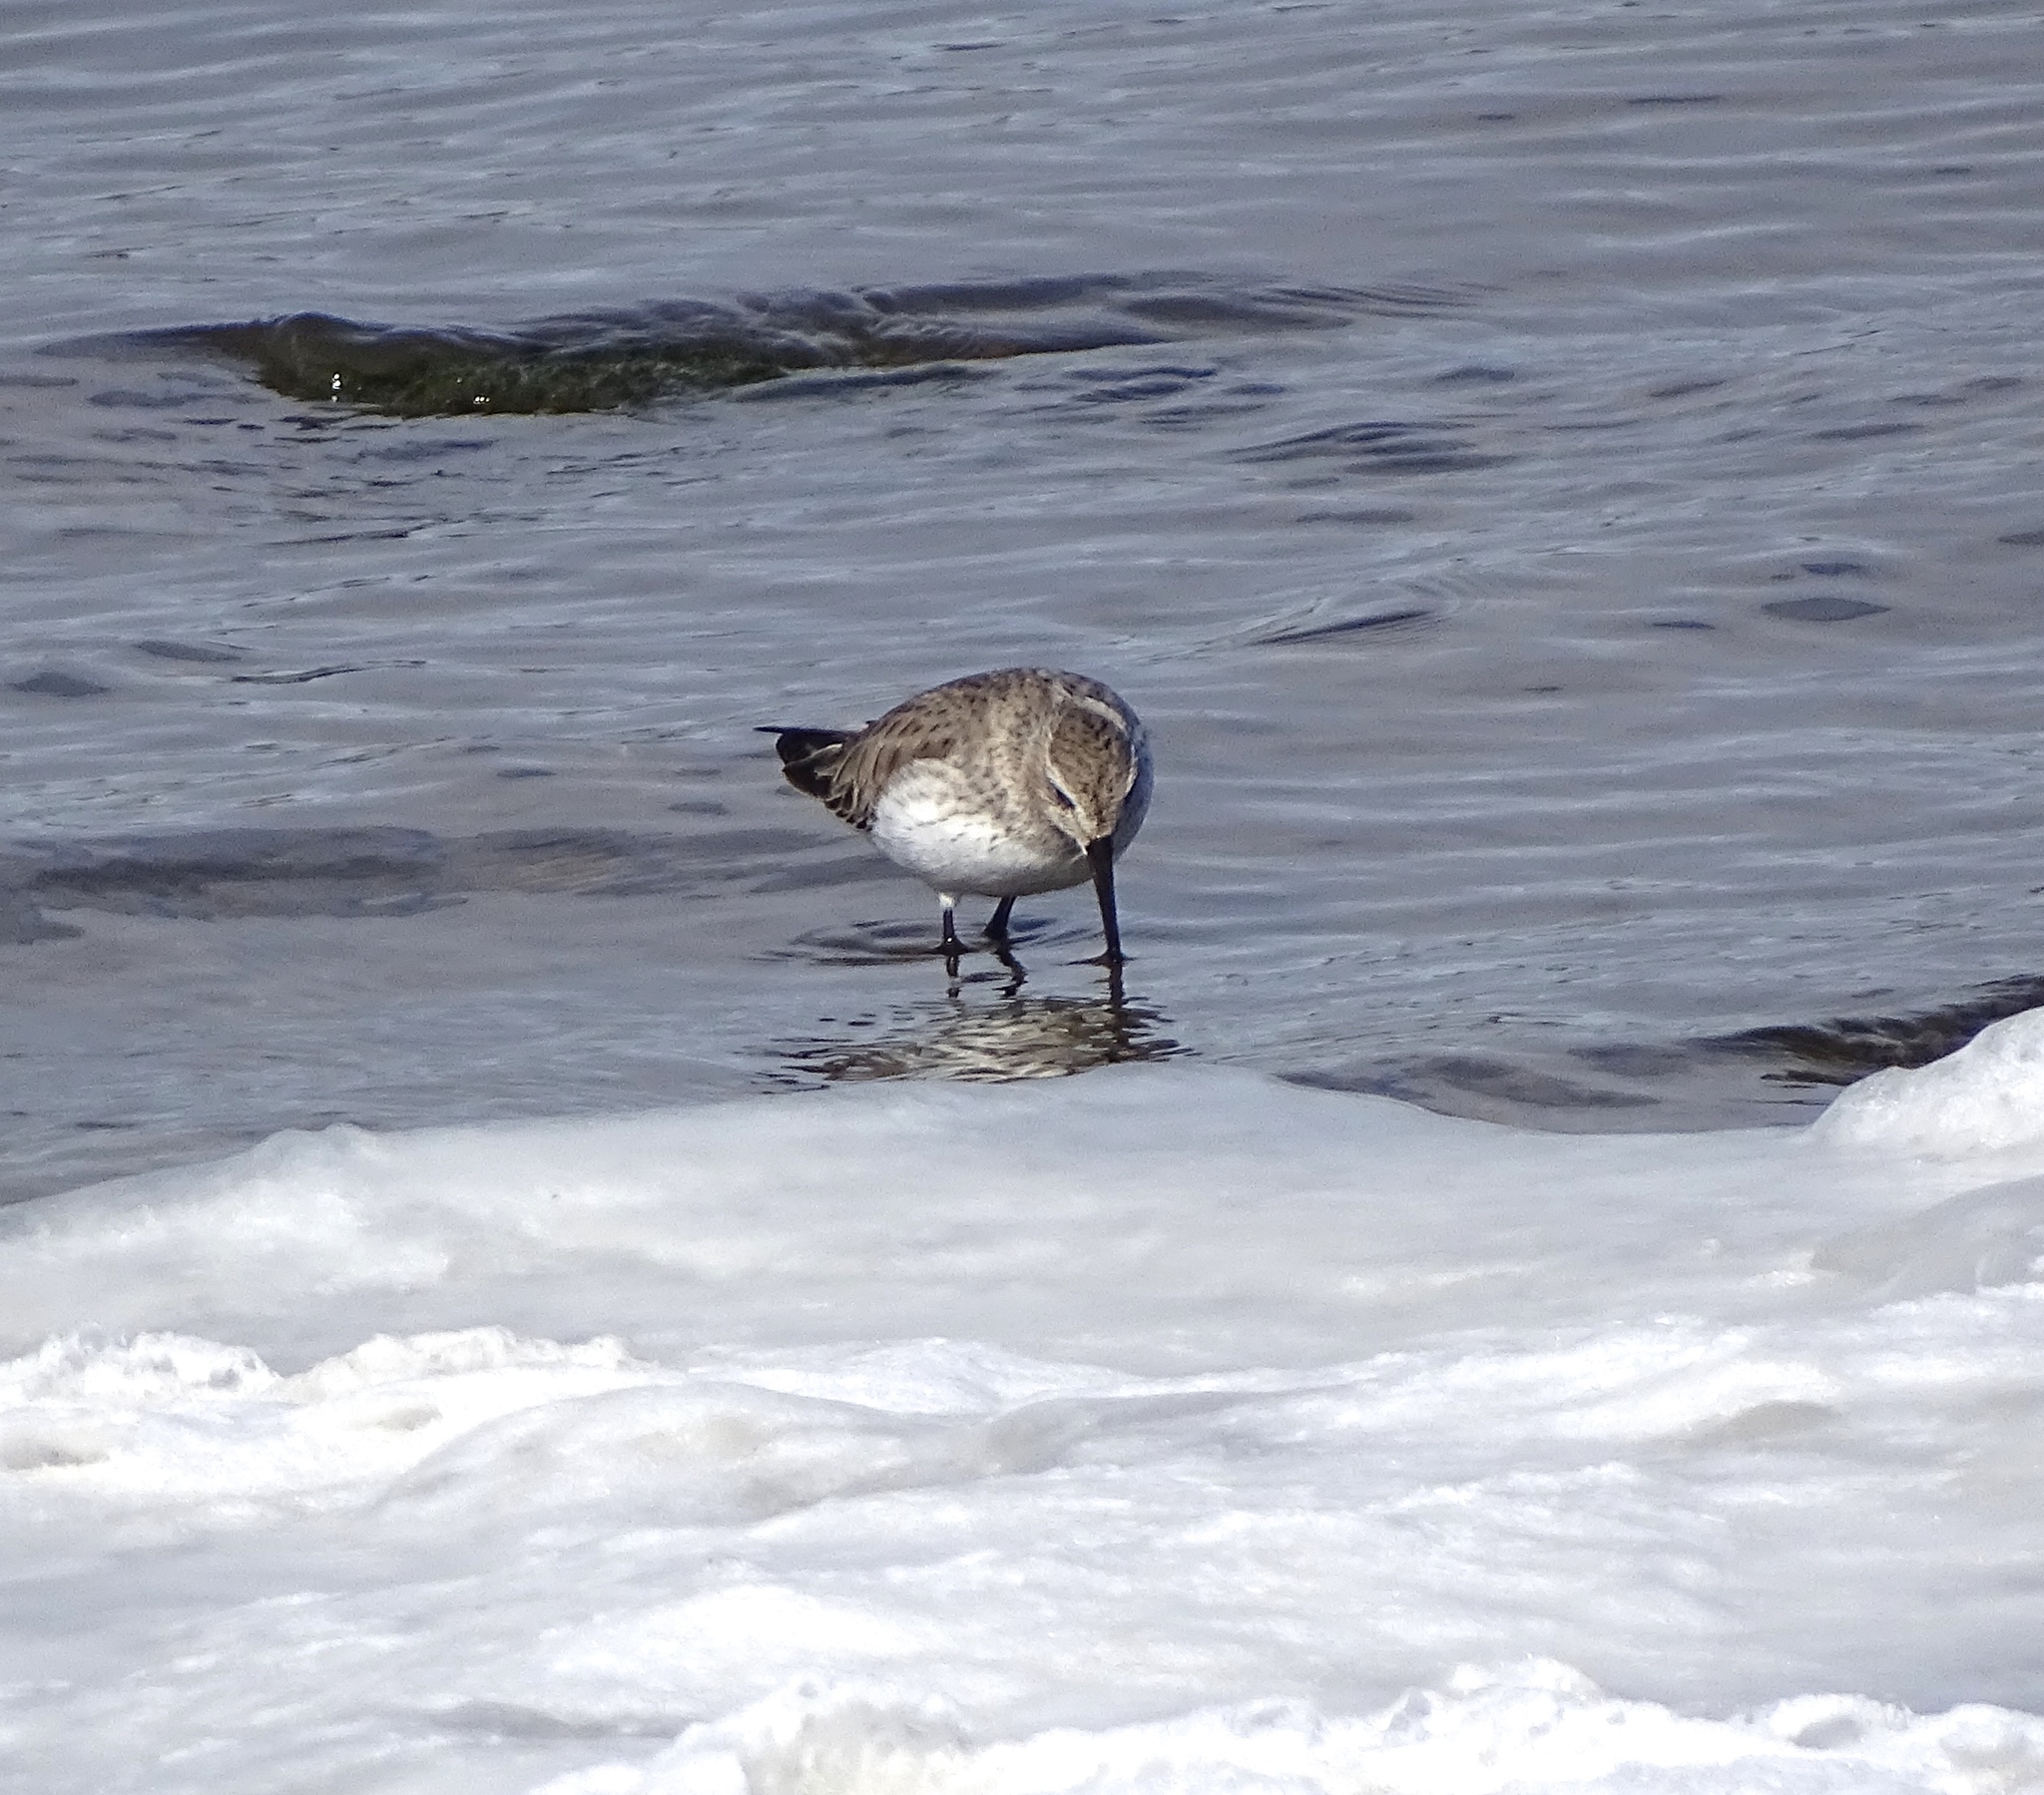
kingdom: Animalia
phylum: Chordata
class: Aves
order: Charadriiformes
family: Scolopacidae
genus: Calidris
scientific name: Calidris alpina
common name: Dunlin
